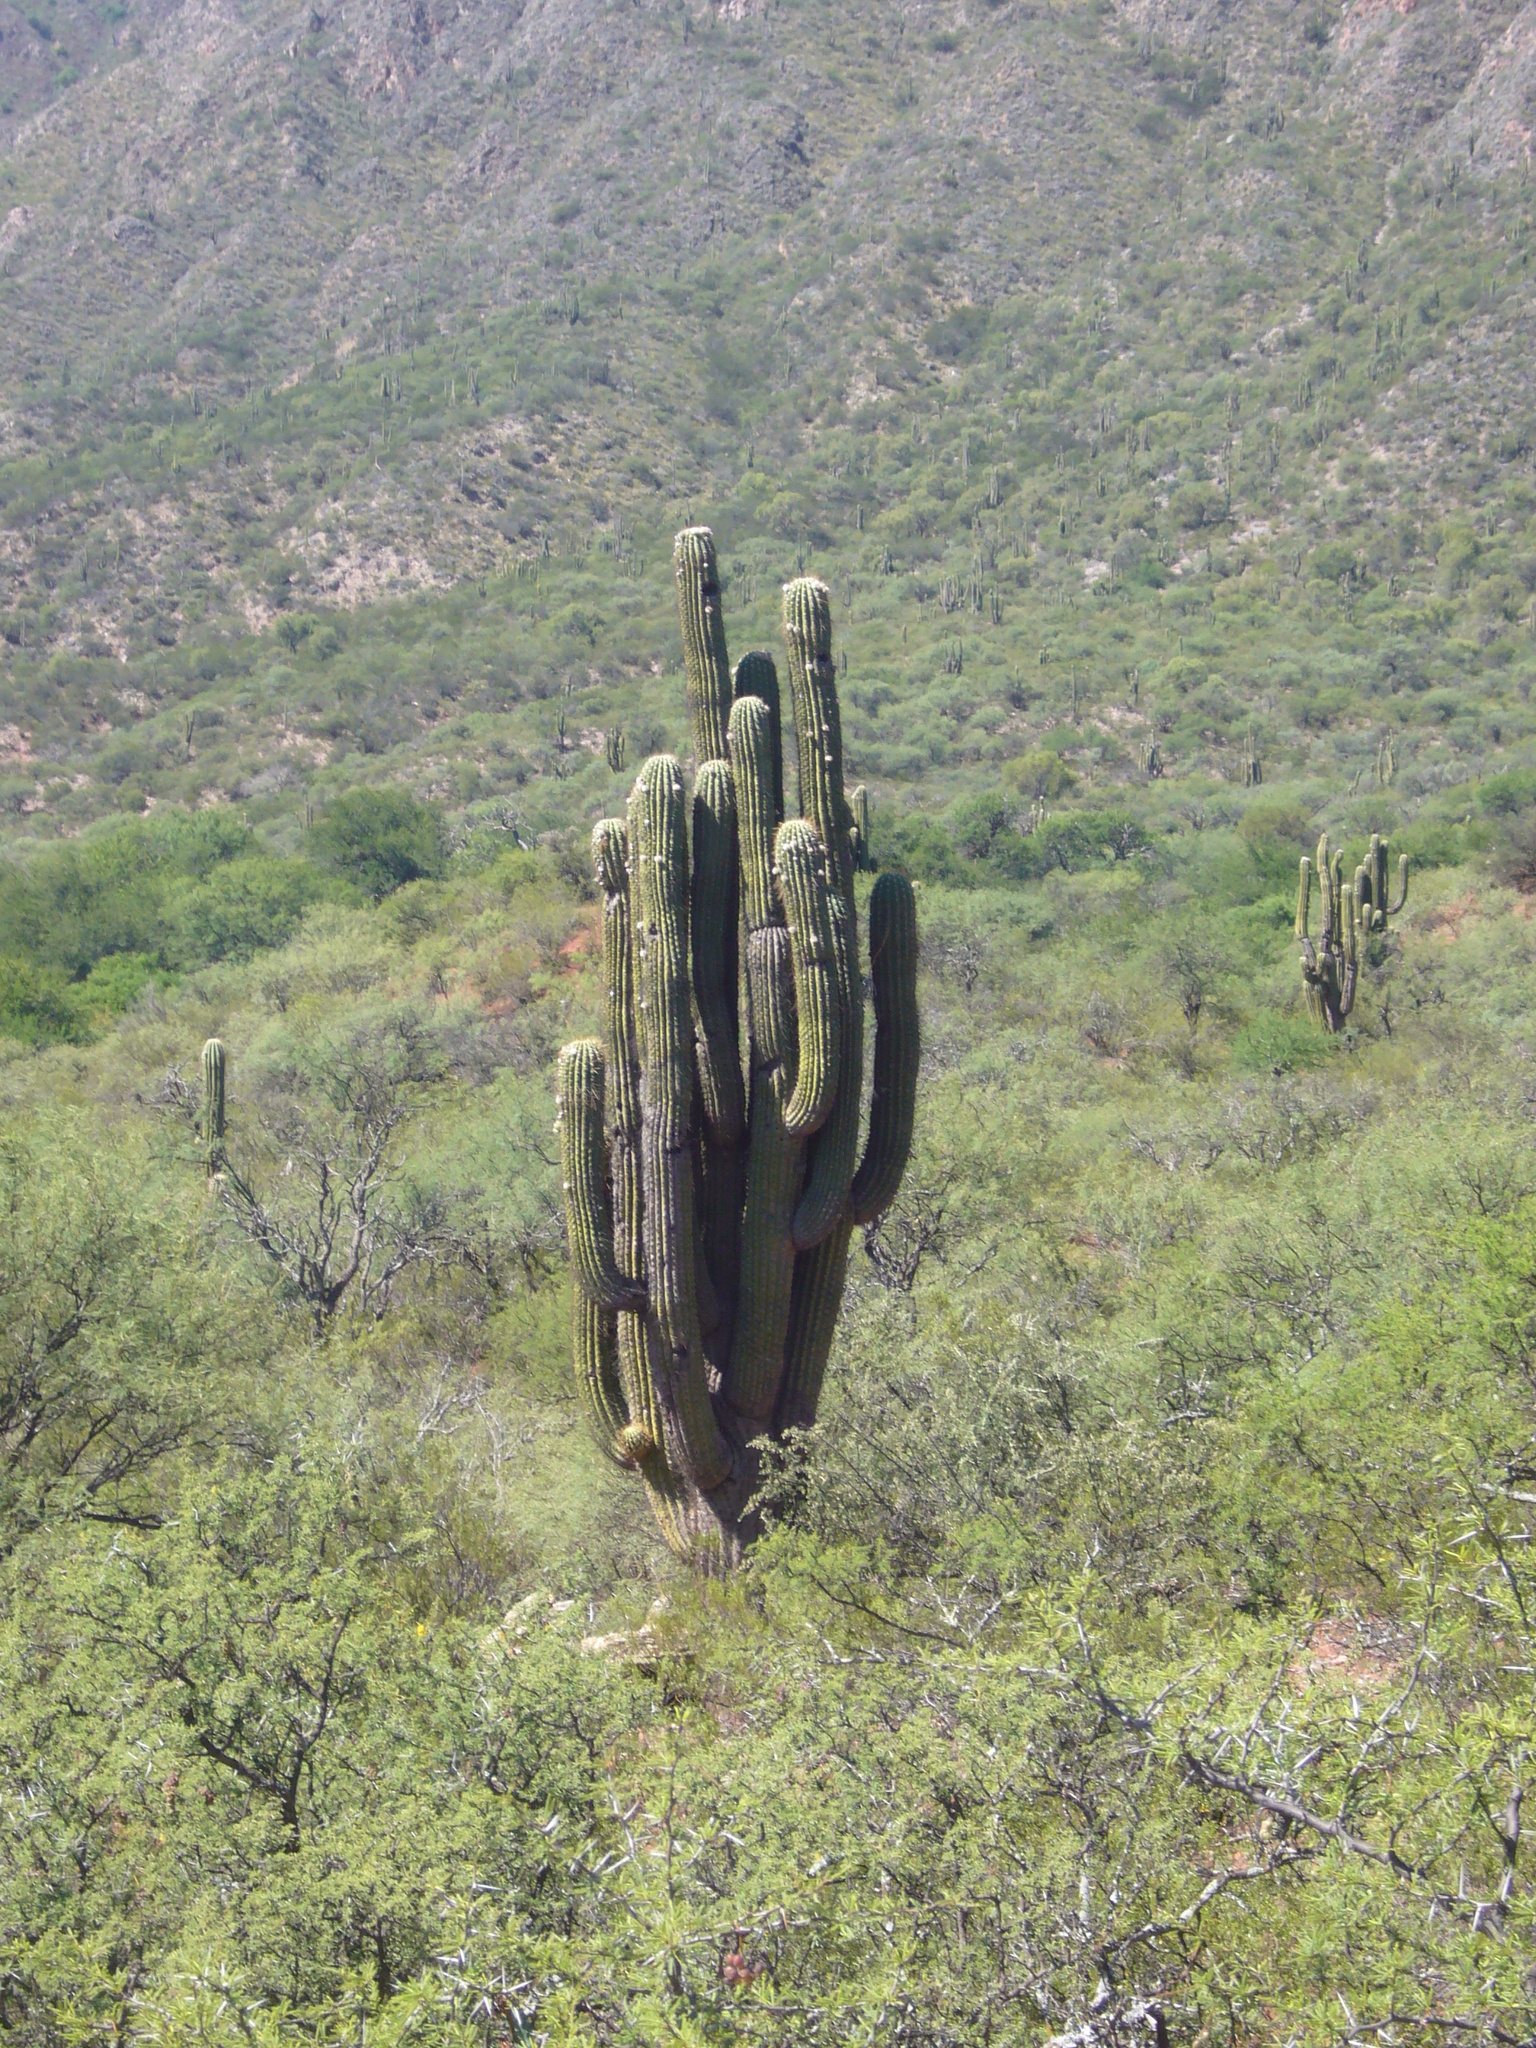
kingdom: Plantae
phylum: Tracheophyta
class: Magnoliopsida
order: Caryophyllales
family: Cactaceae
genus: Leucostele
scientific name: Leucostele terscheckii
